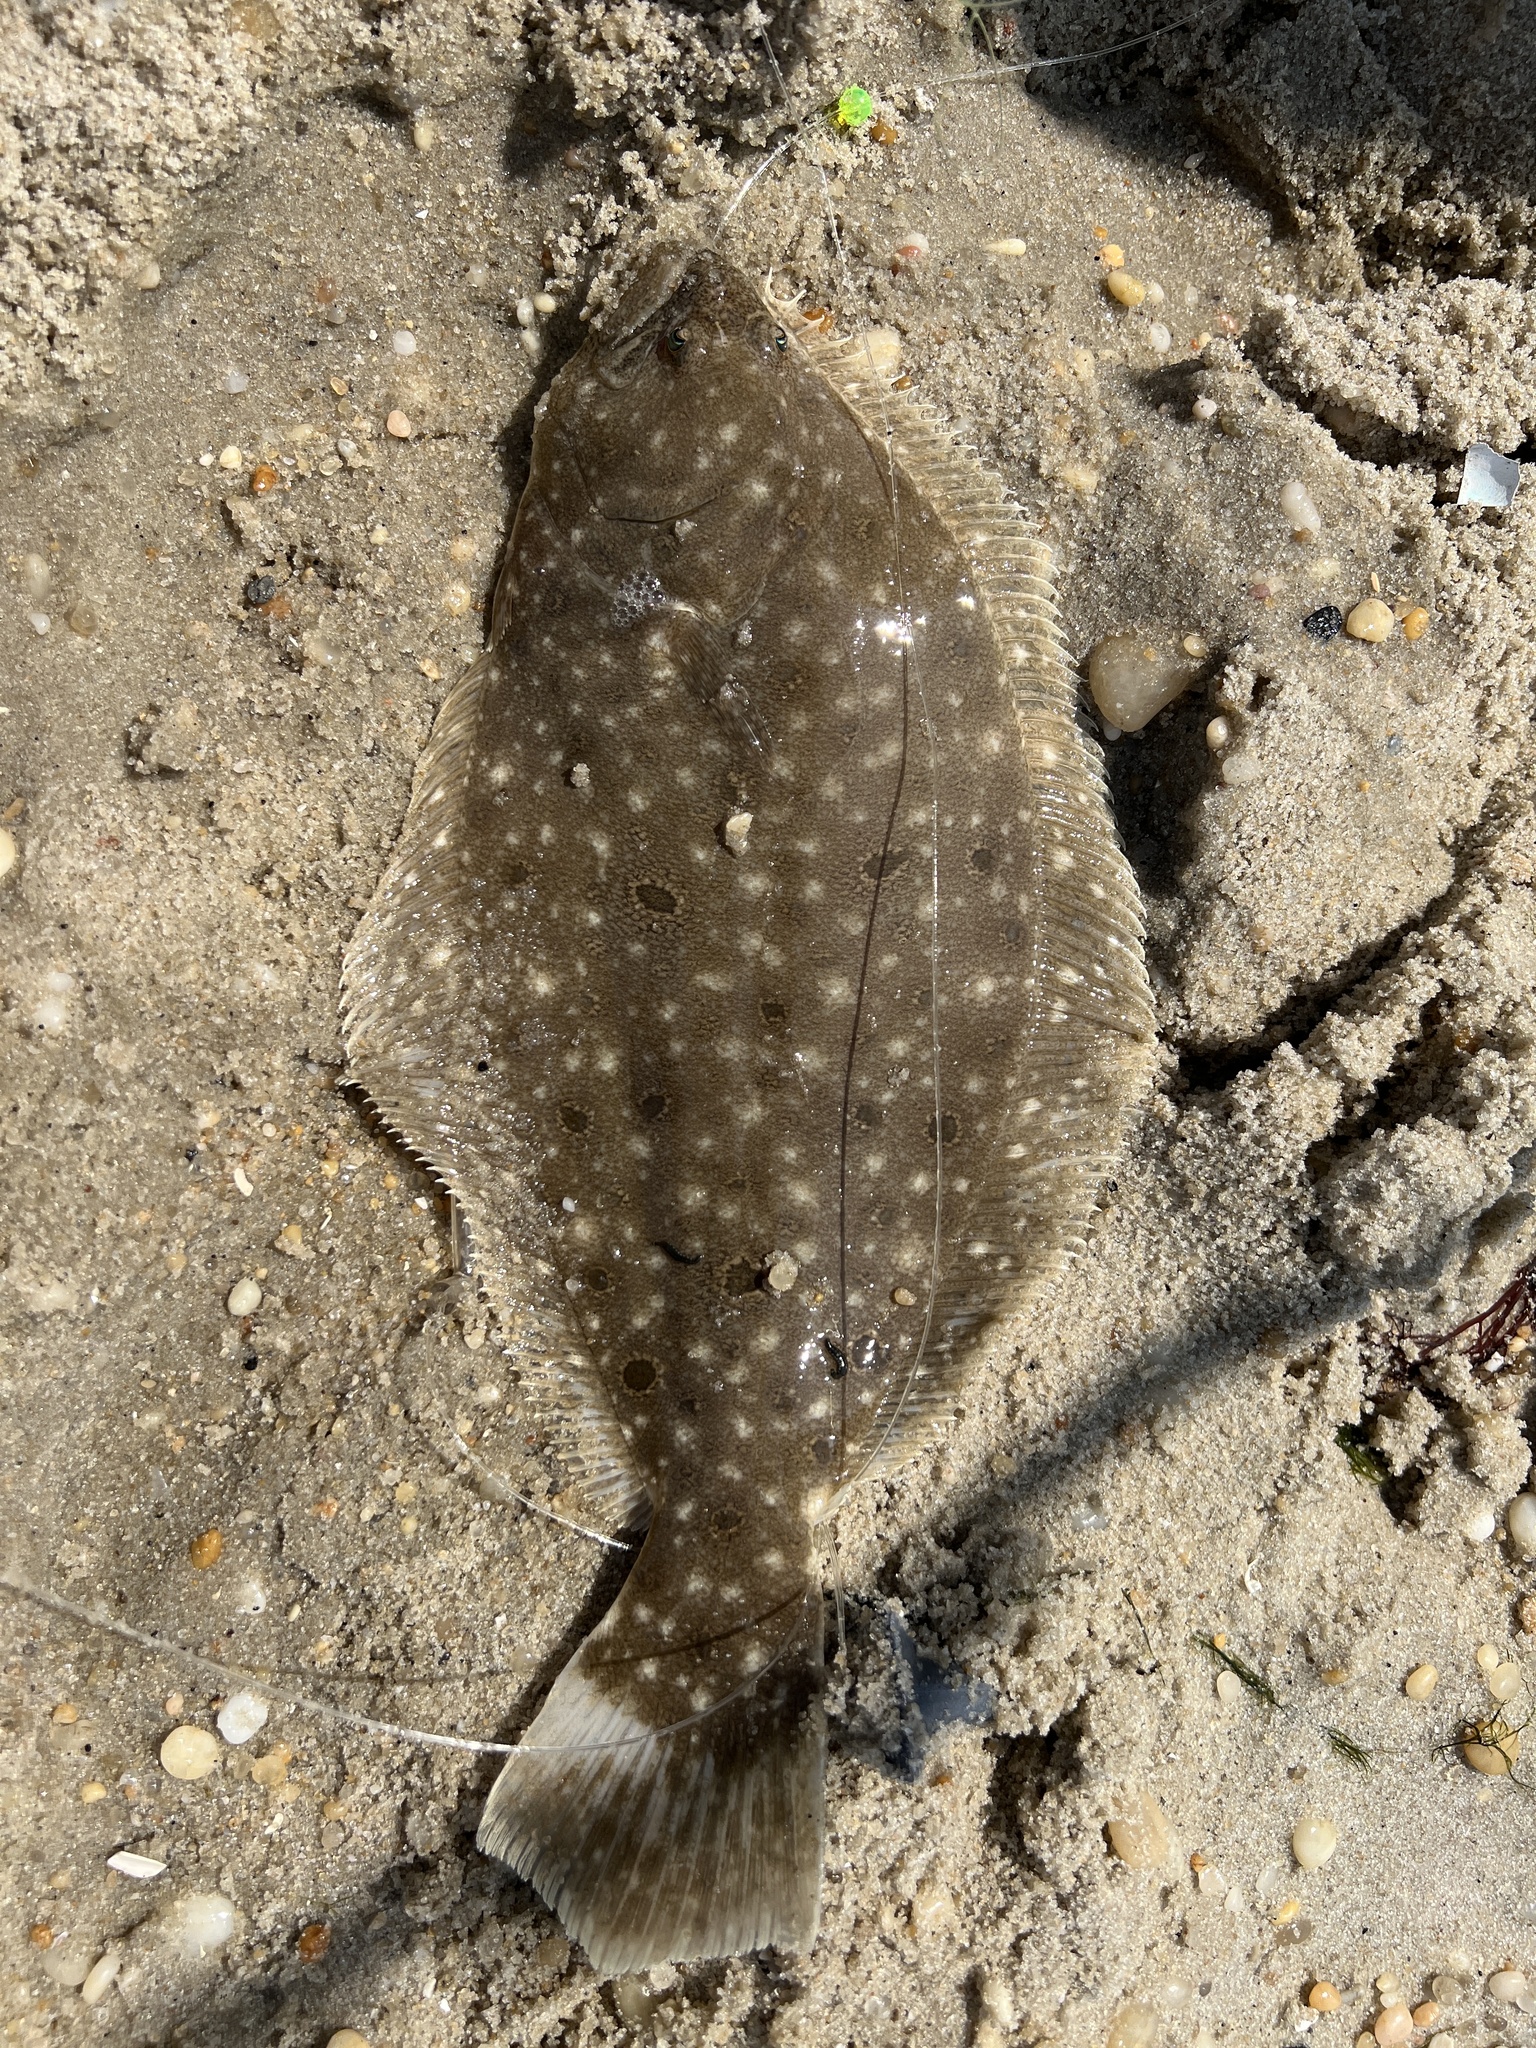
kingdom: Animalia
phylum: Chordata
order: Pleuronectiformes
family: Paralichthyidae
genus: Paralichthys
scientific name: Paralichthys dentatus
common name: Summer flounder
